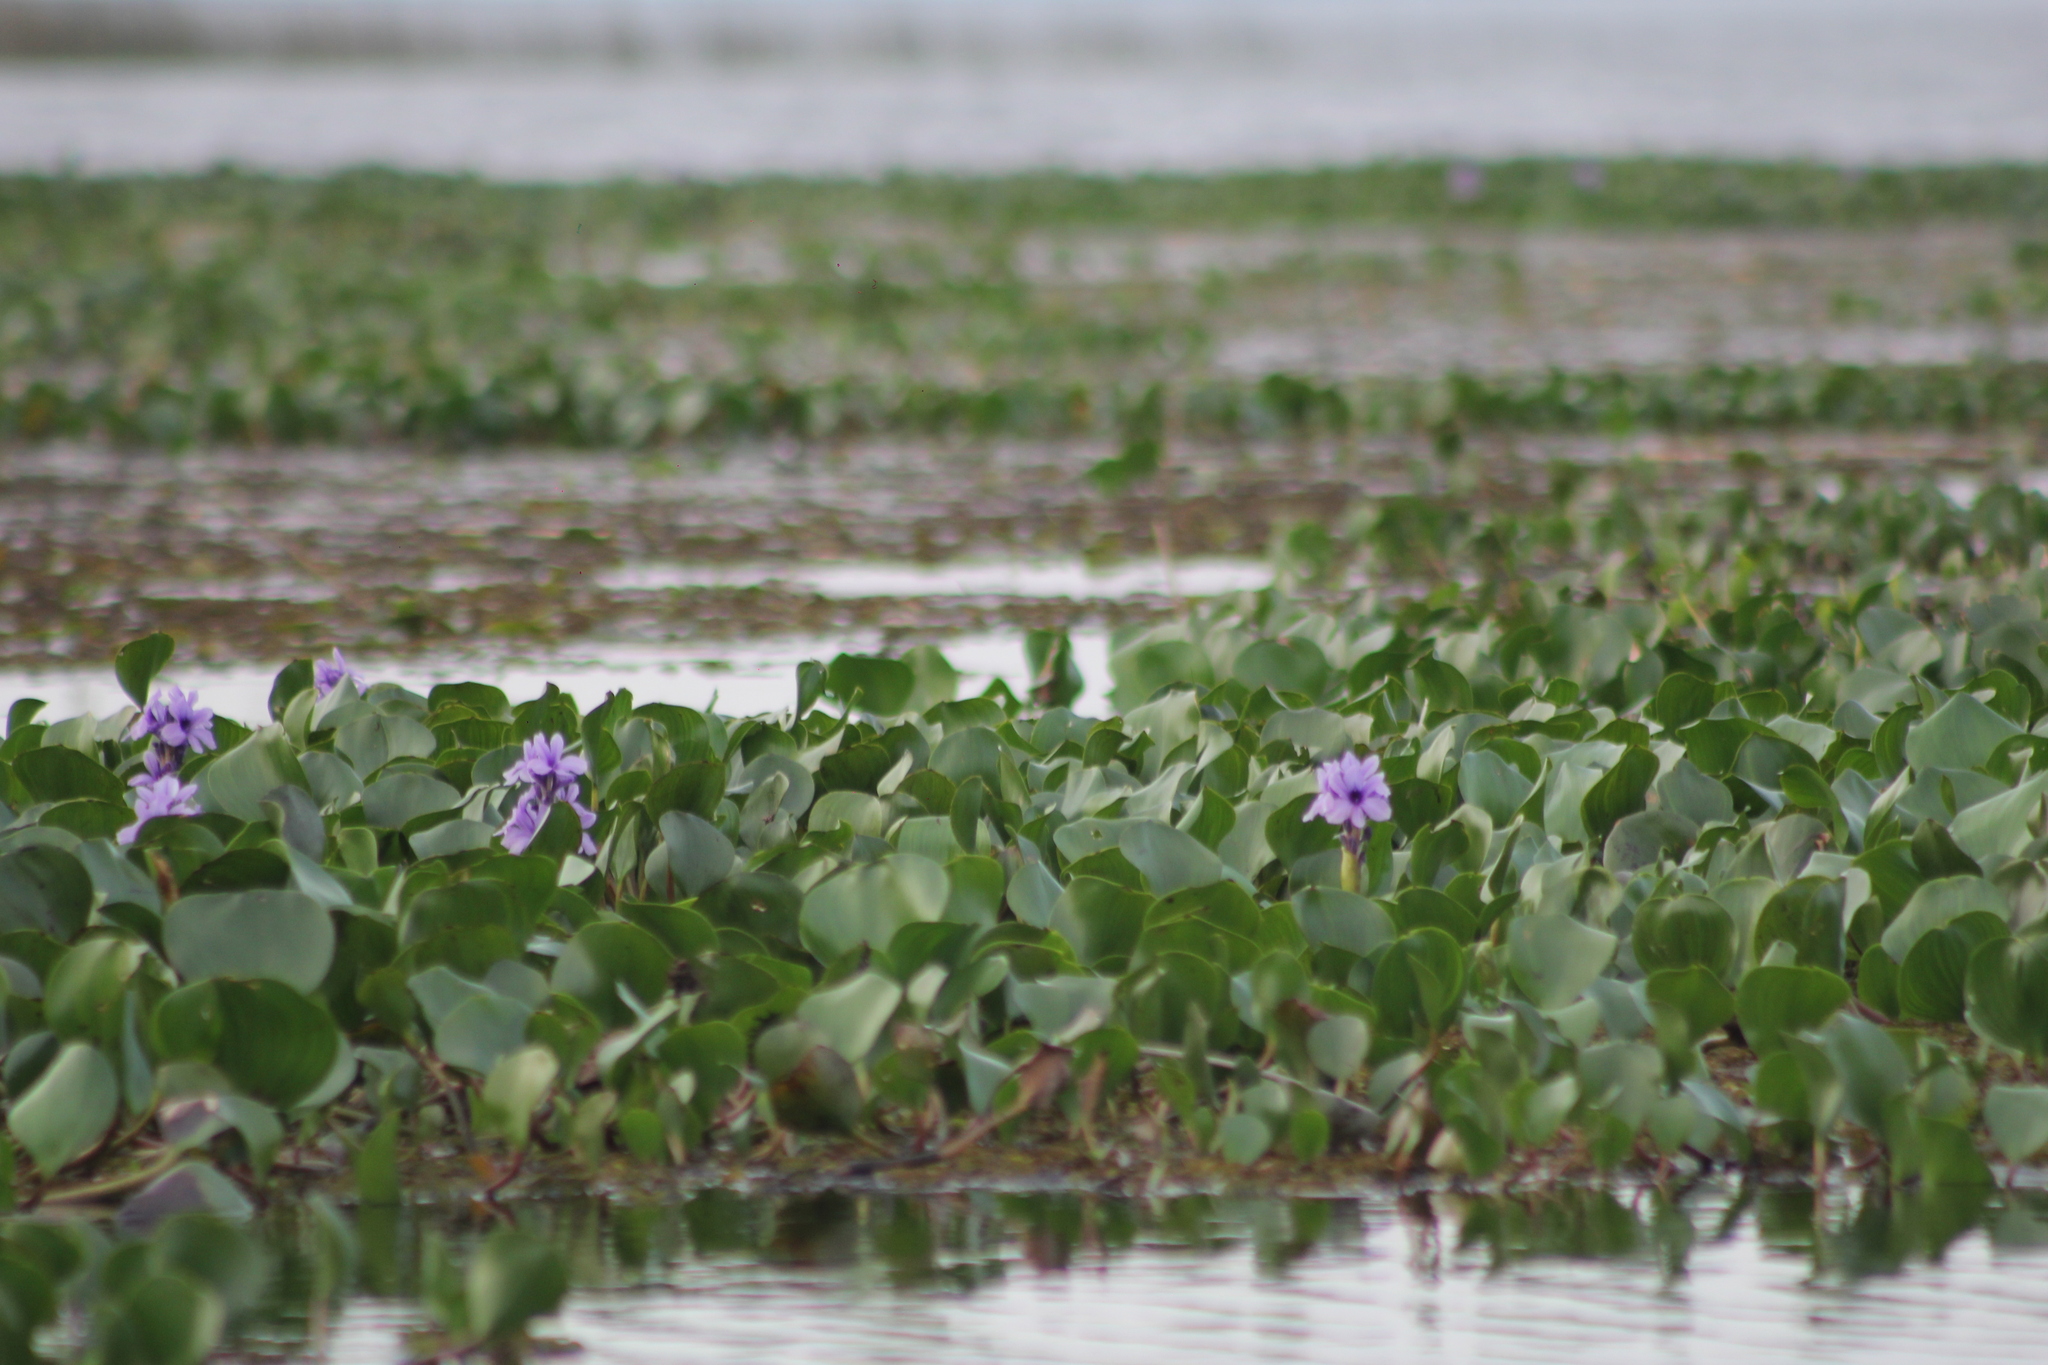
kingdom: Plantae
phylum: Tracheophyta
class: Liliopsida
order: Commelinales
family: Pontederiaceae
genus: Pontederia
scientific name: Pontederia azurea
